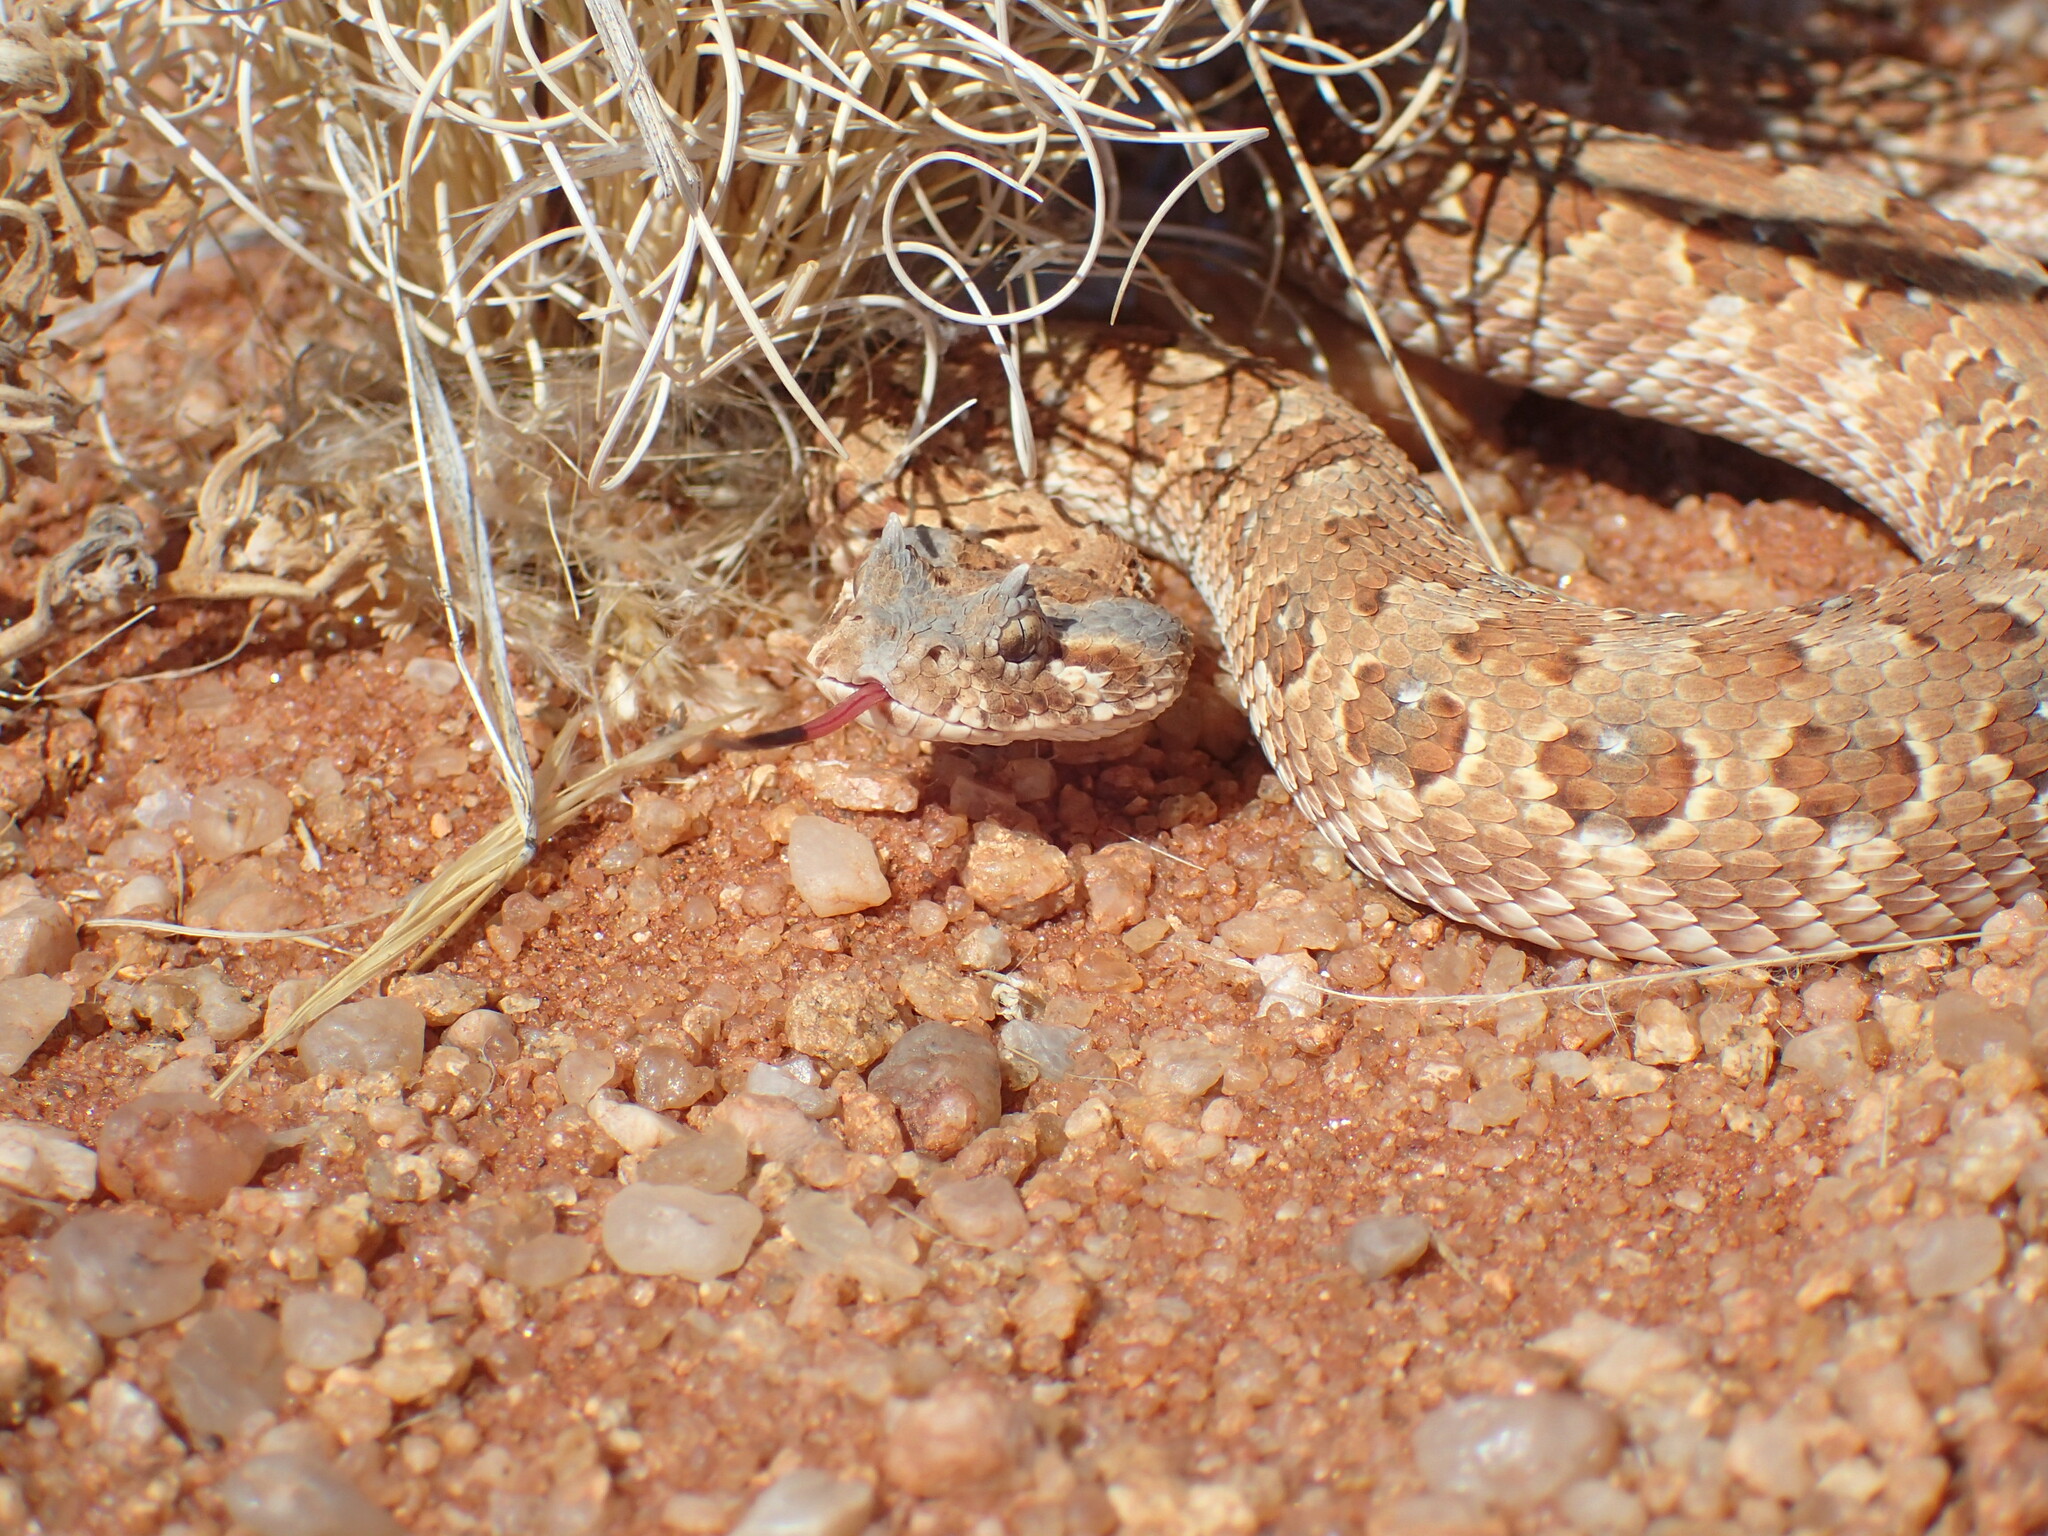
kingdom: Animalia
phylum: Chordata
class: Squamata
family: Viperidae
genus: Bitis
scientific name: Bitis caudalis
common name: Horned adder
